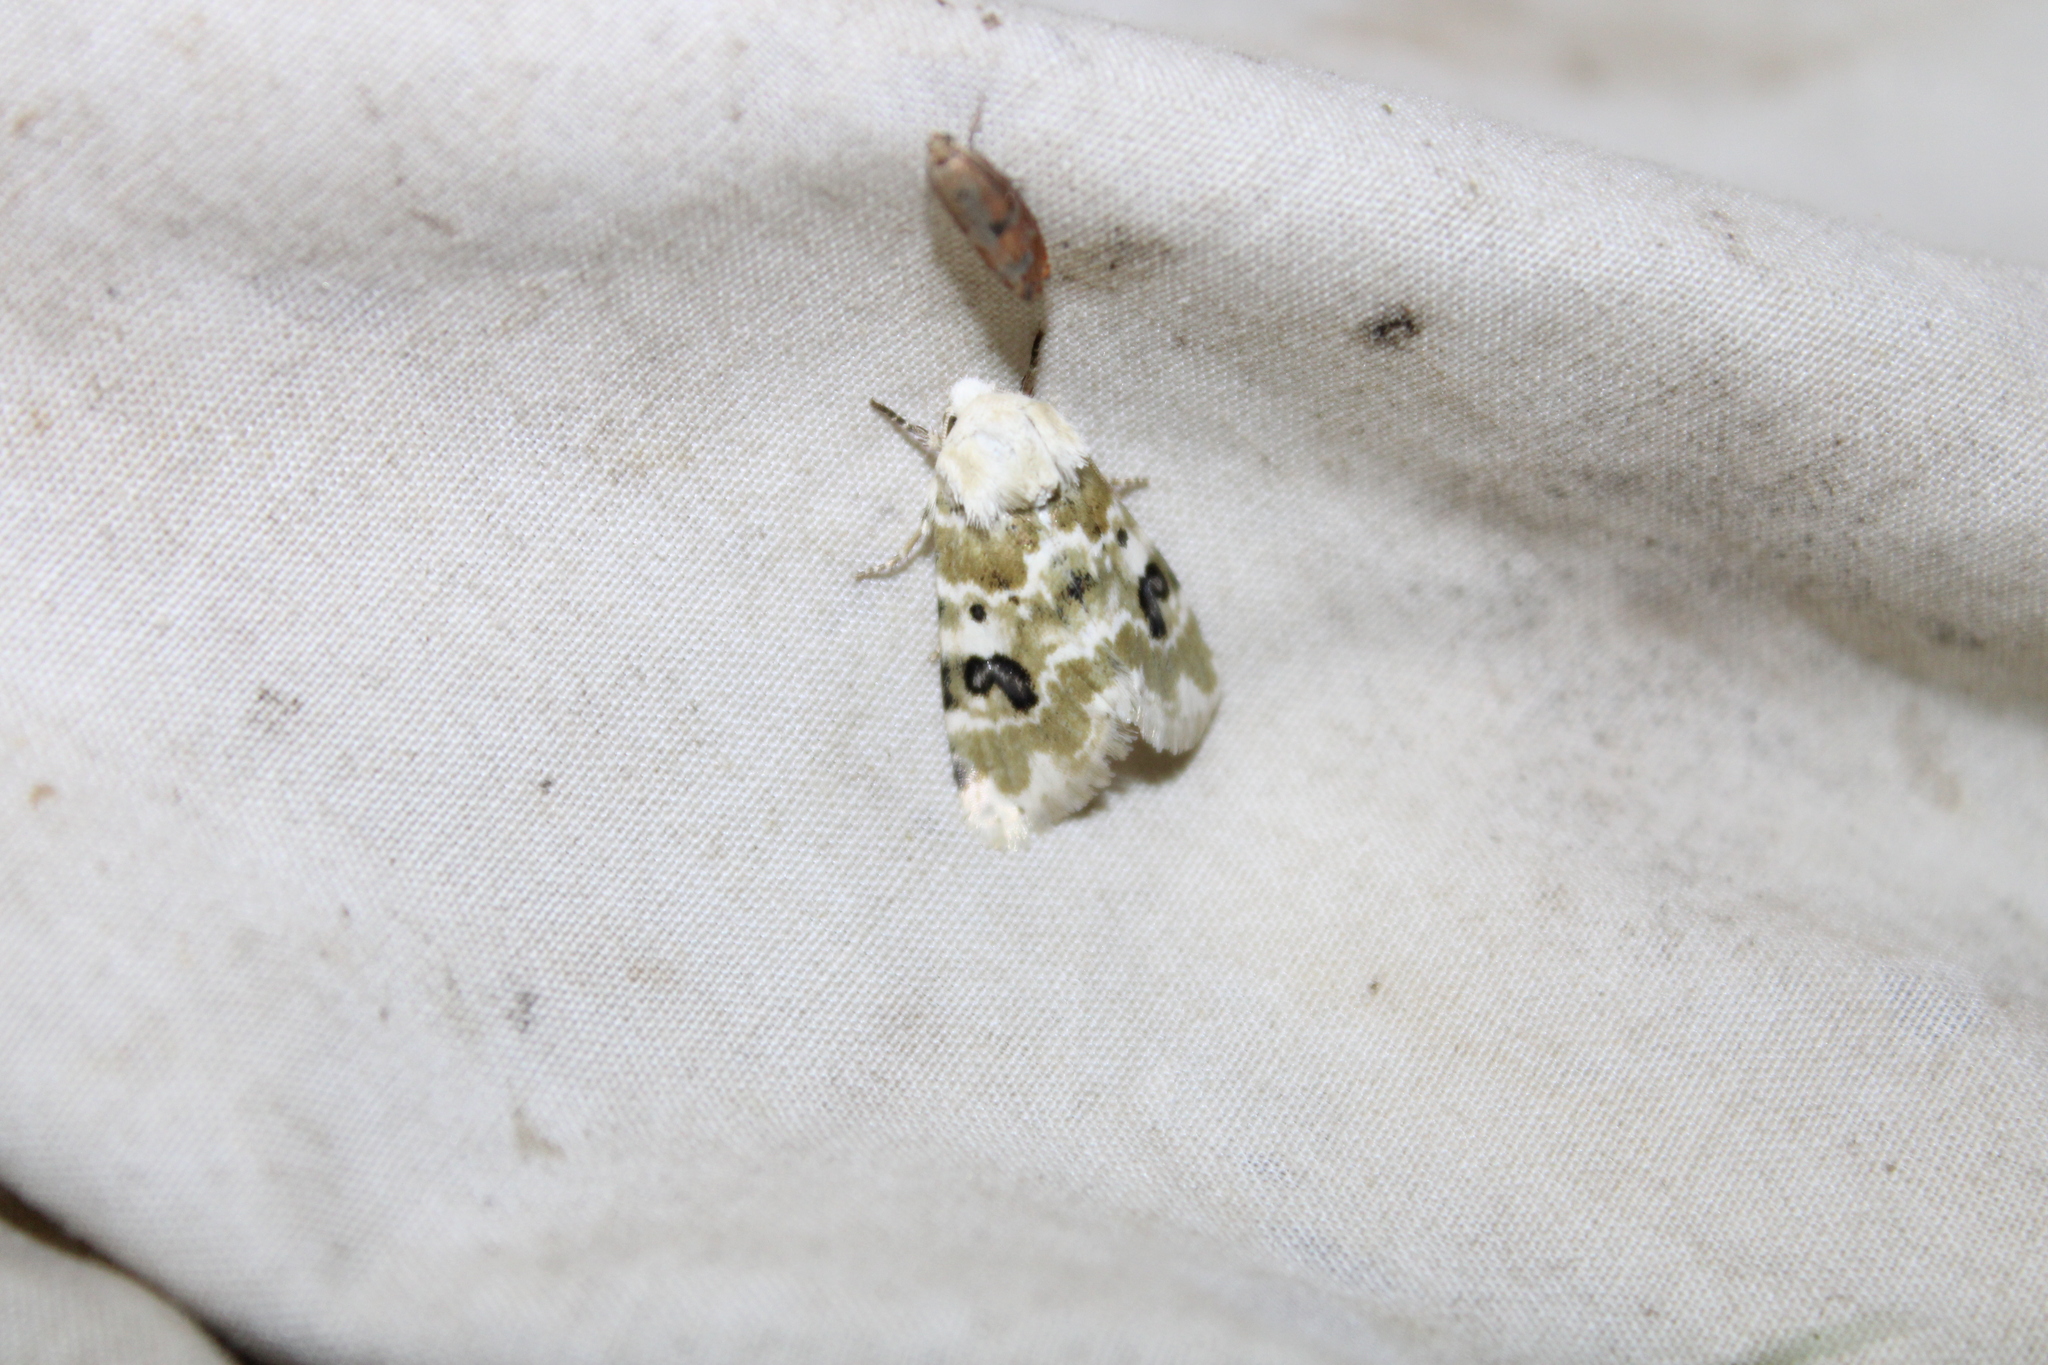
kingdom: Animalia
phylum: Arthropoda
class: Insecta
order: Lepidoptera
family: Noctuidae
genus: Schinia
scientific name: Schinia nundina
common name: Goldenrod flower moth
